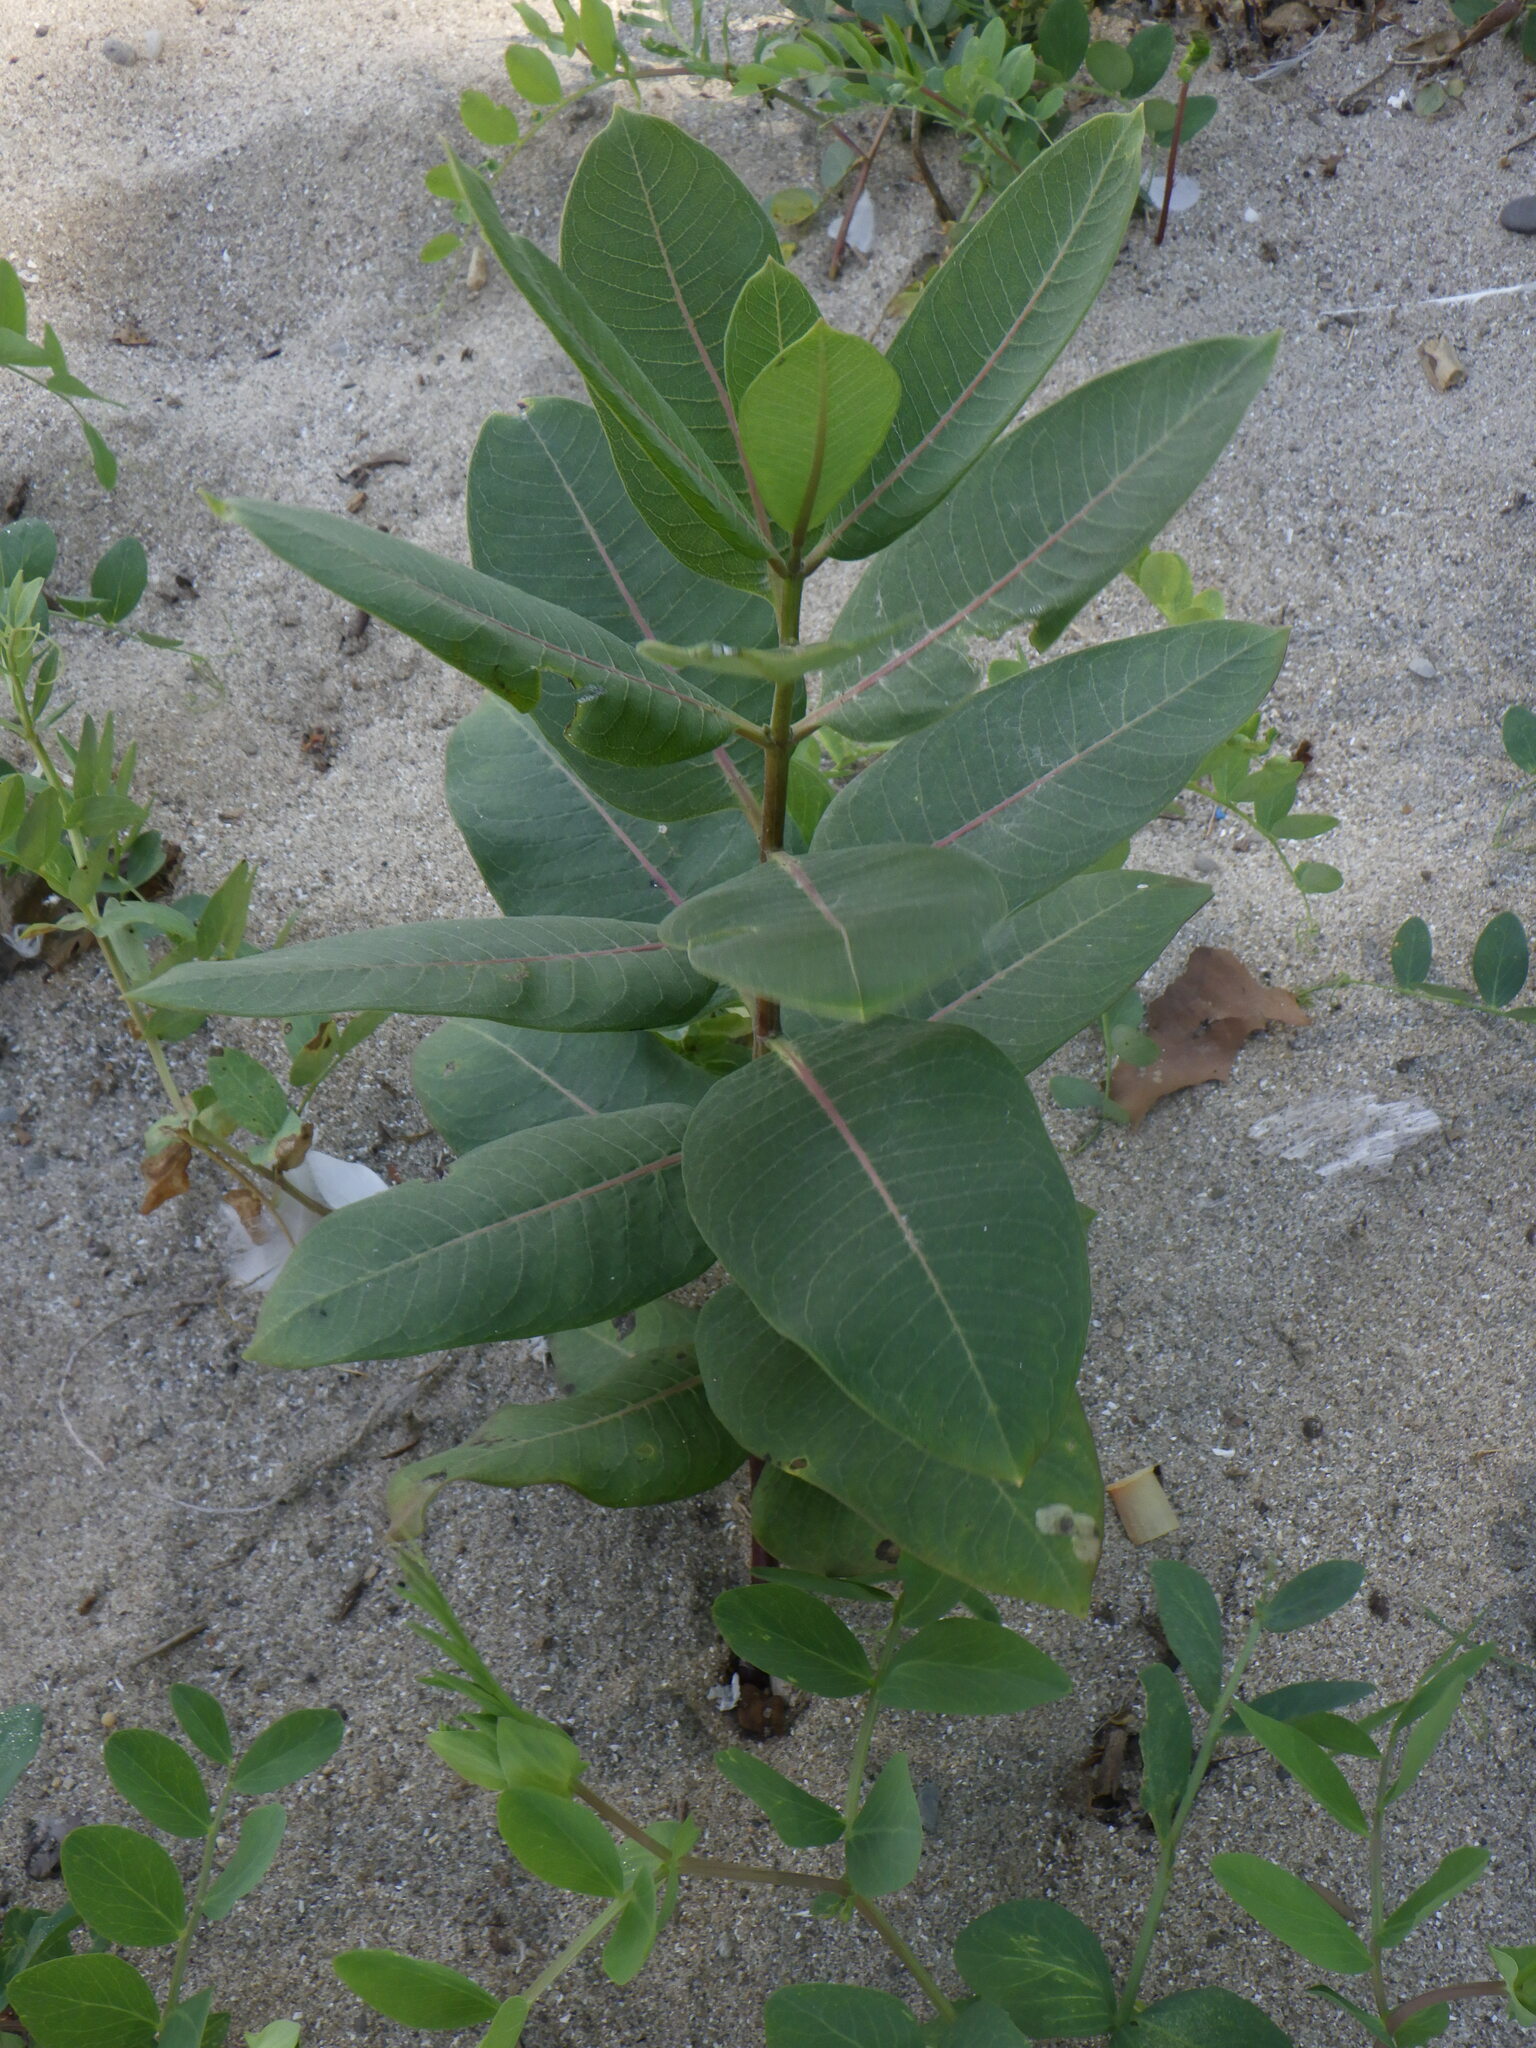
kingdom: Plantae
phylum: Tracheophyta
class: Magnoliopsida
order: Gentianales
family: Apocynaceae
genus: Asclepias
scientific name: Asclepias syriaca
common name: Common milkweed
